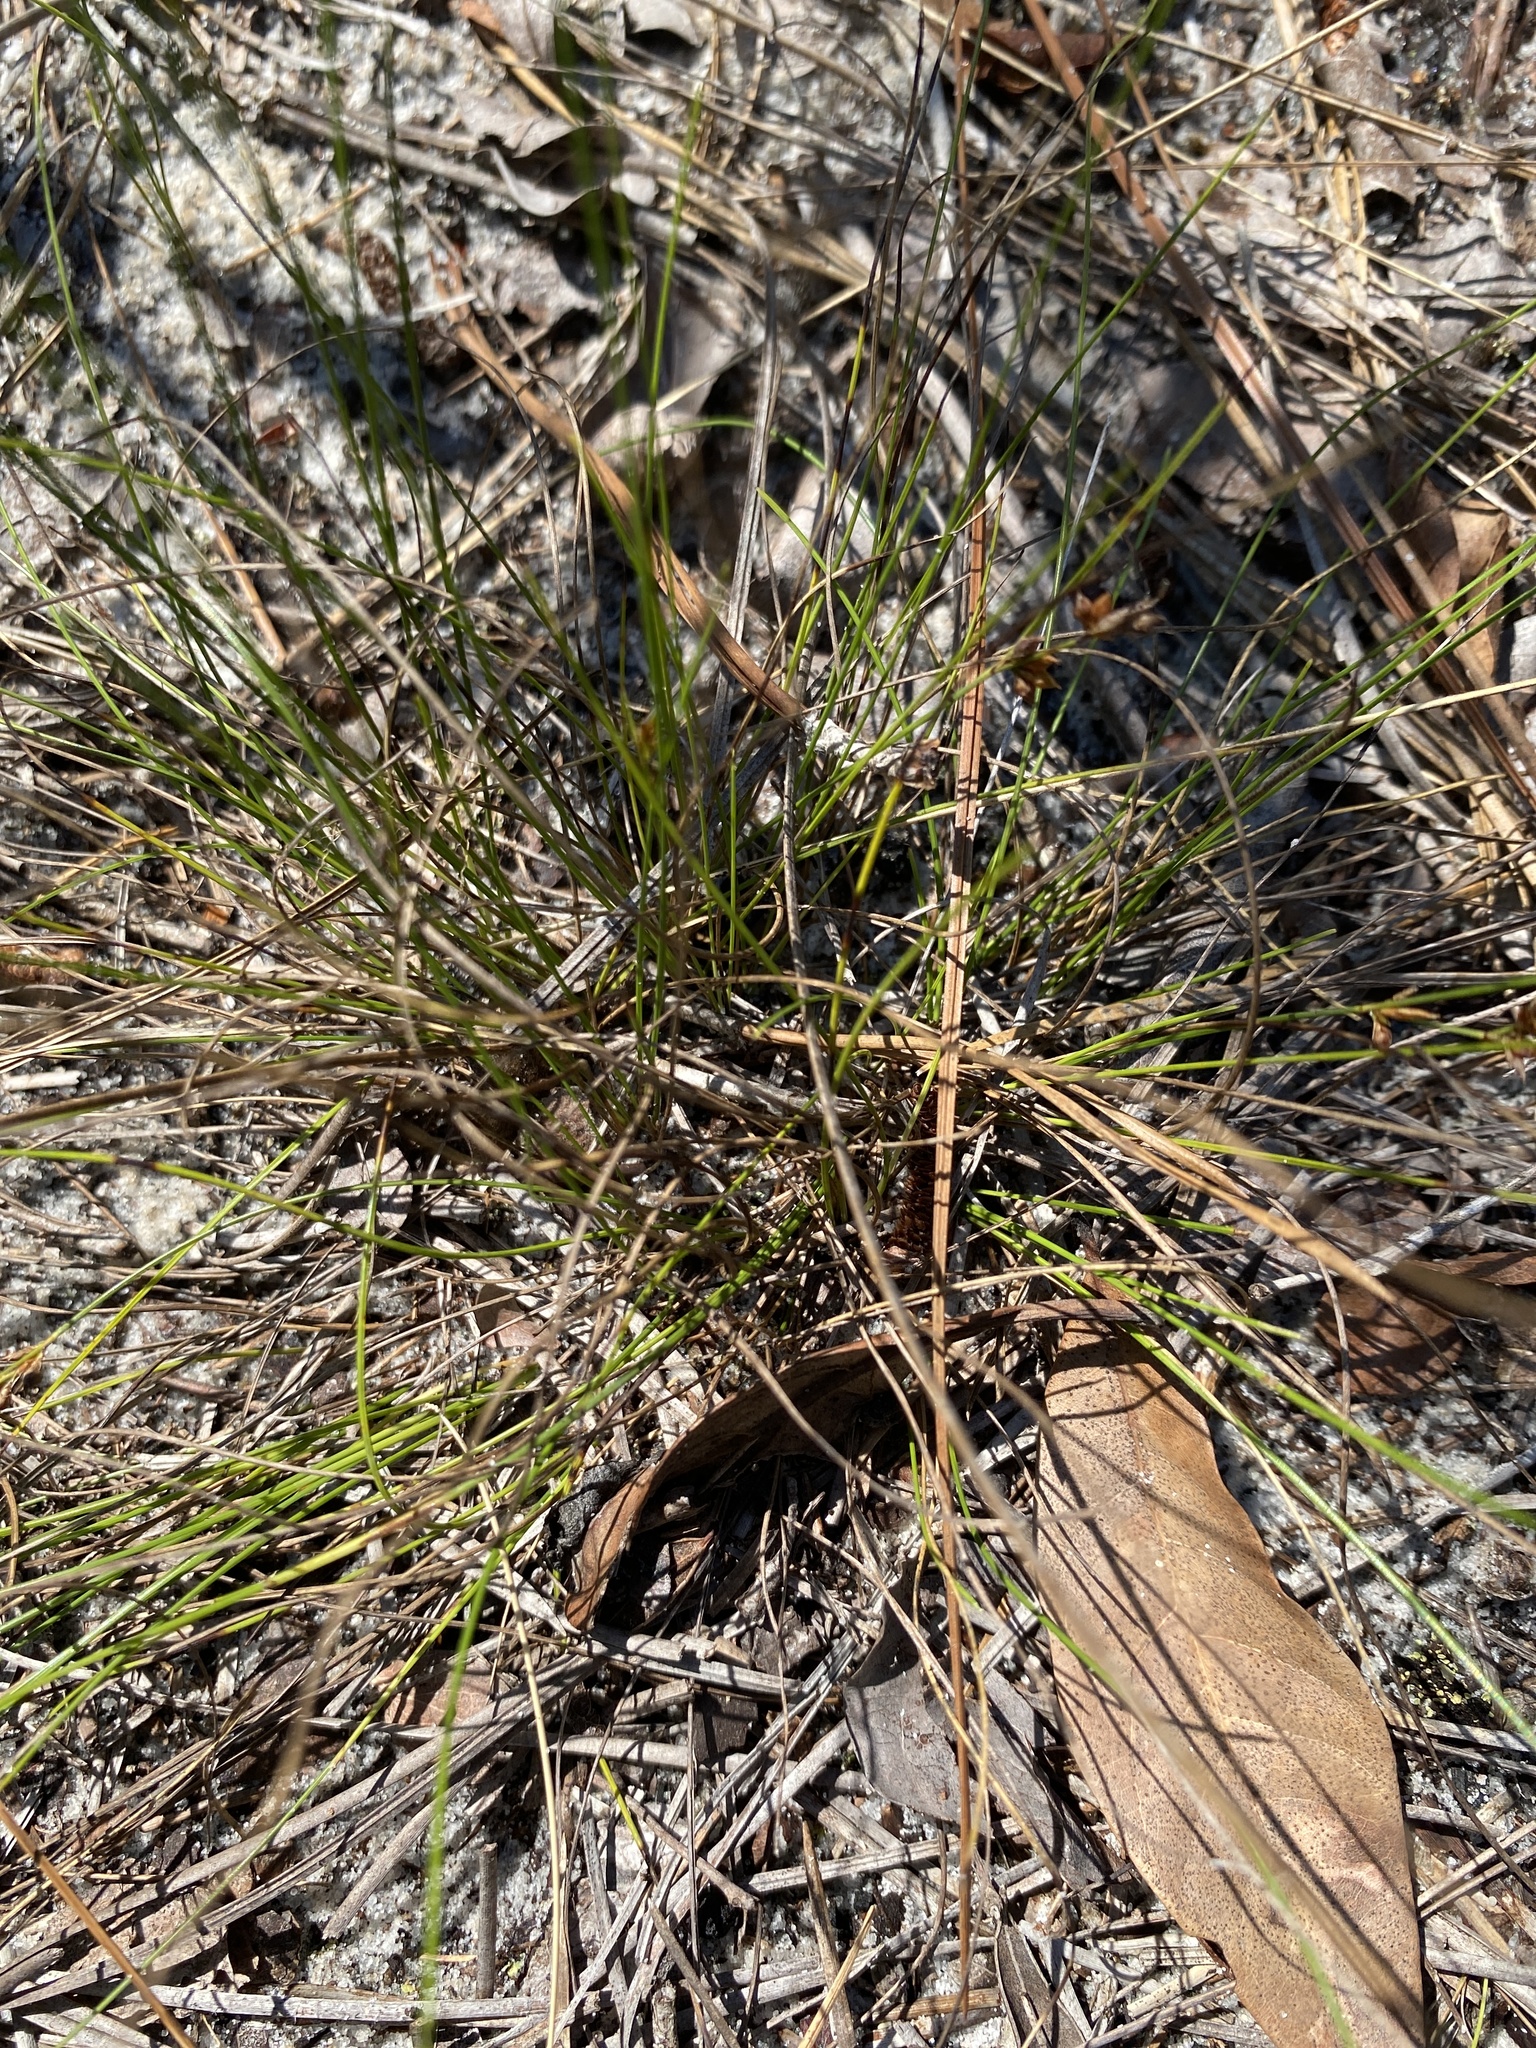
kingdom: Plantae
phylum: Tracheophyta
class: Liliopsida
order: Poales
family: Cyperaceae
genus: Rhynchospora
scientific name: Rhynchospora plumosa
